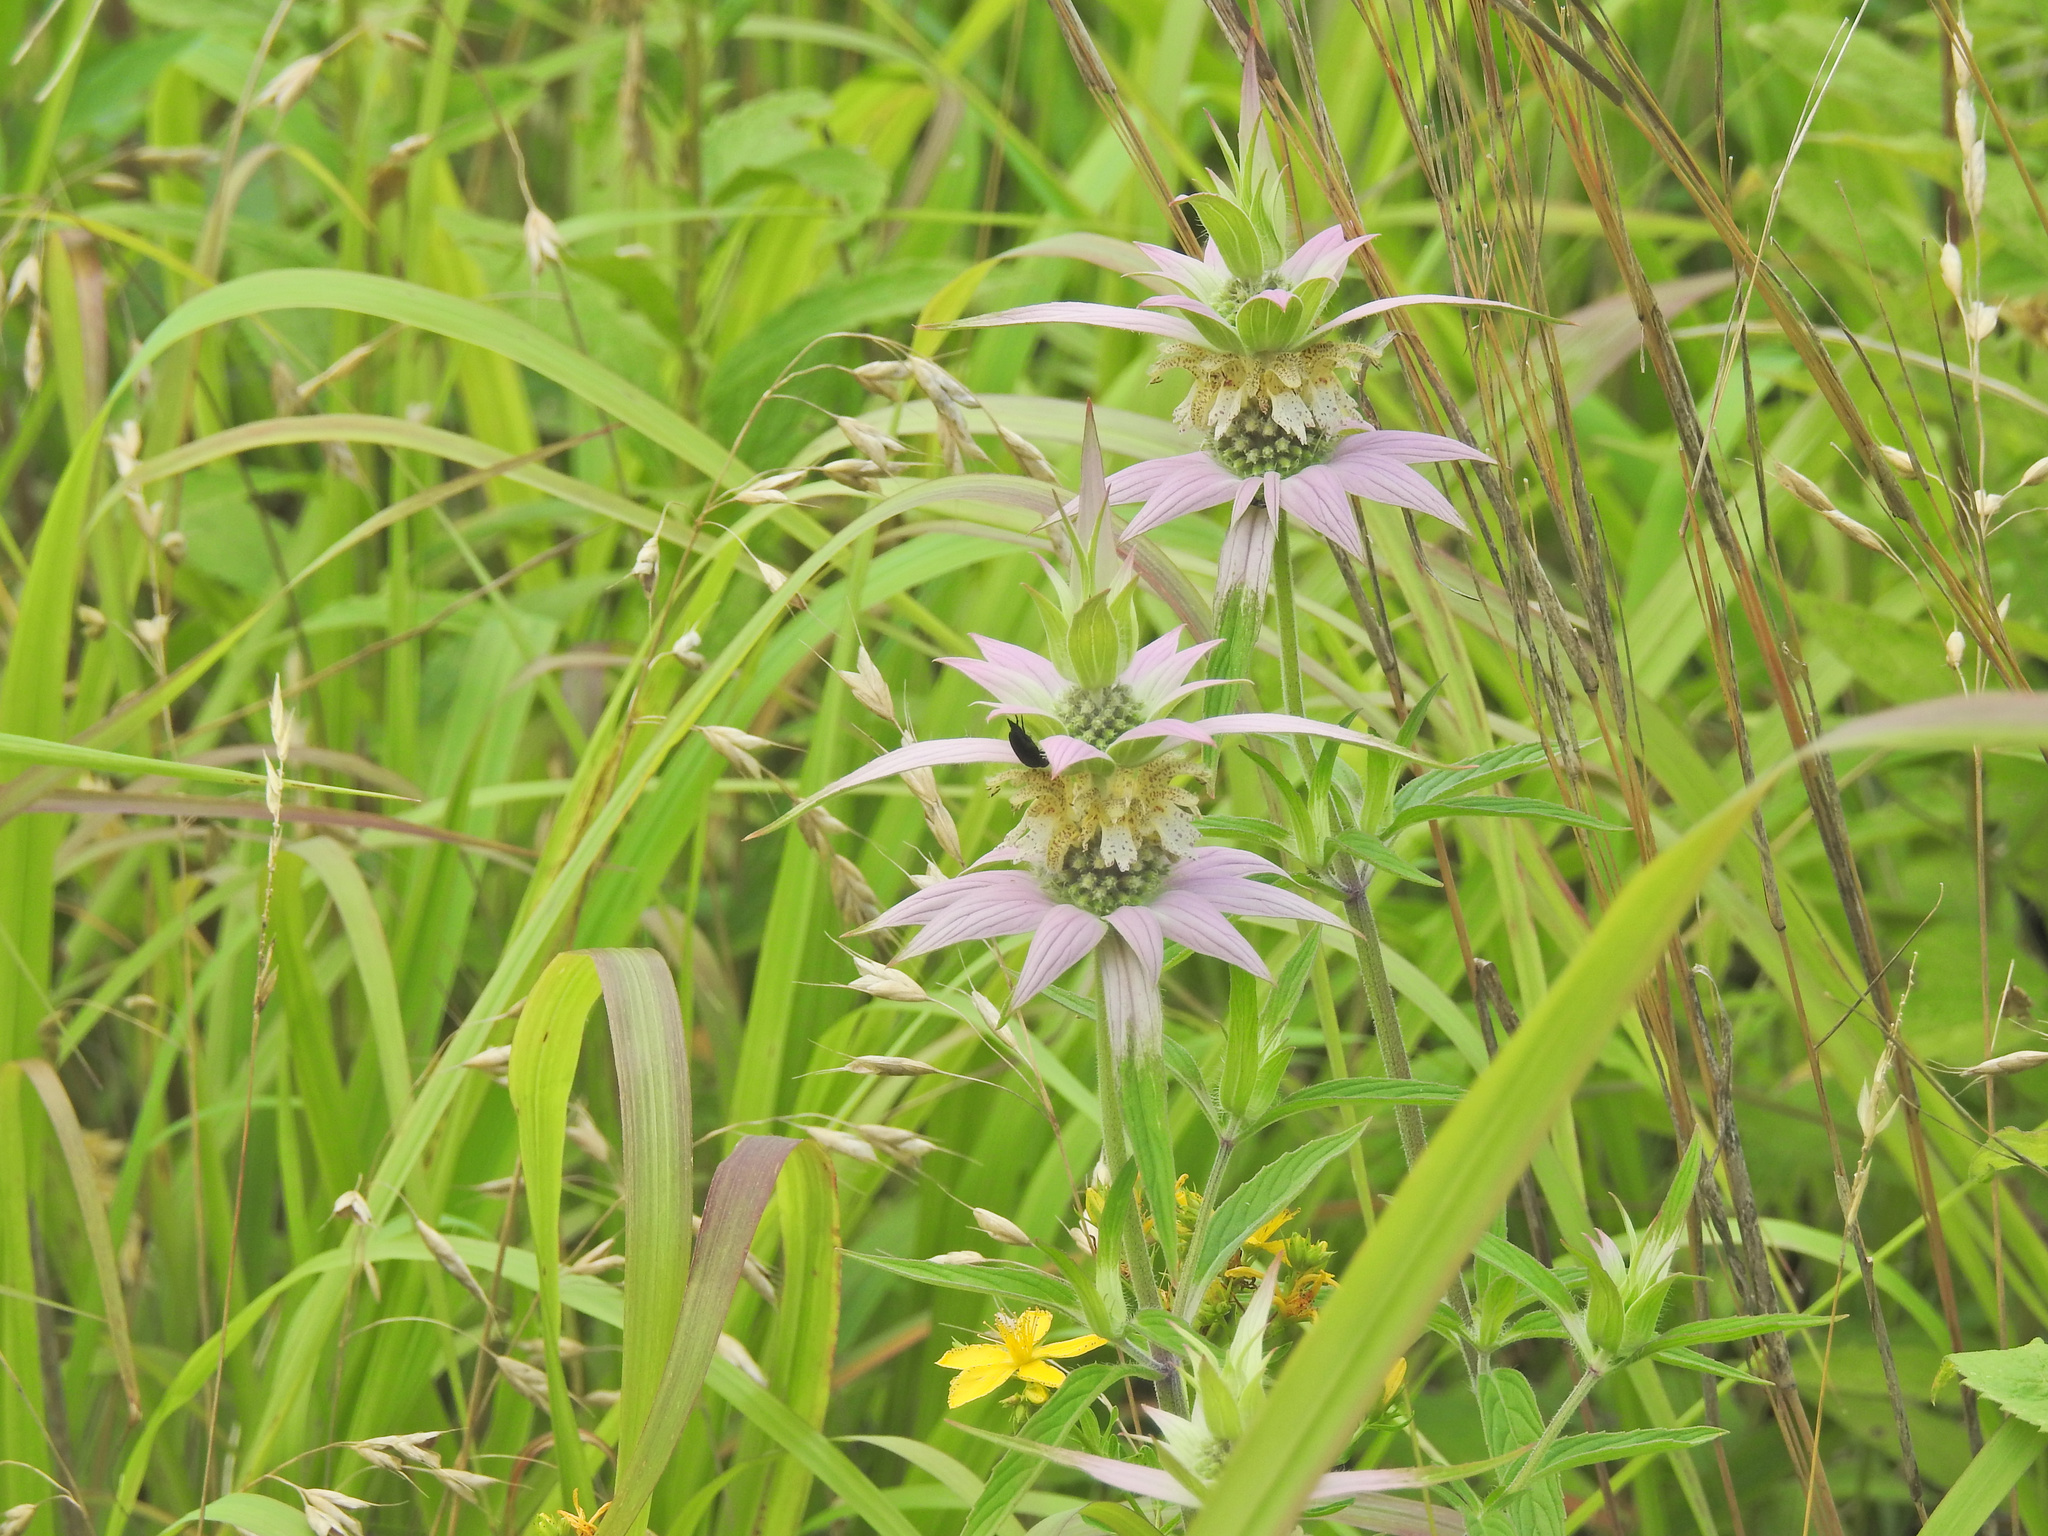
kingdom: Plantae
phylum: Tracheophyta
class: Magnoliopsida
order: Lamiales
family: Lamiaceae
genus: Monarda
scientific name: Monarda punctata
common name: Dotted monarda
